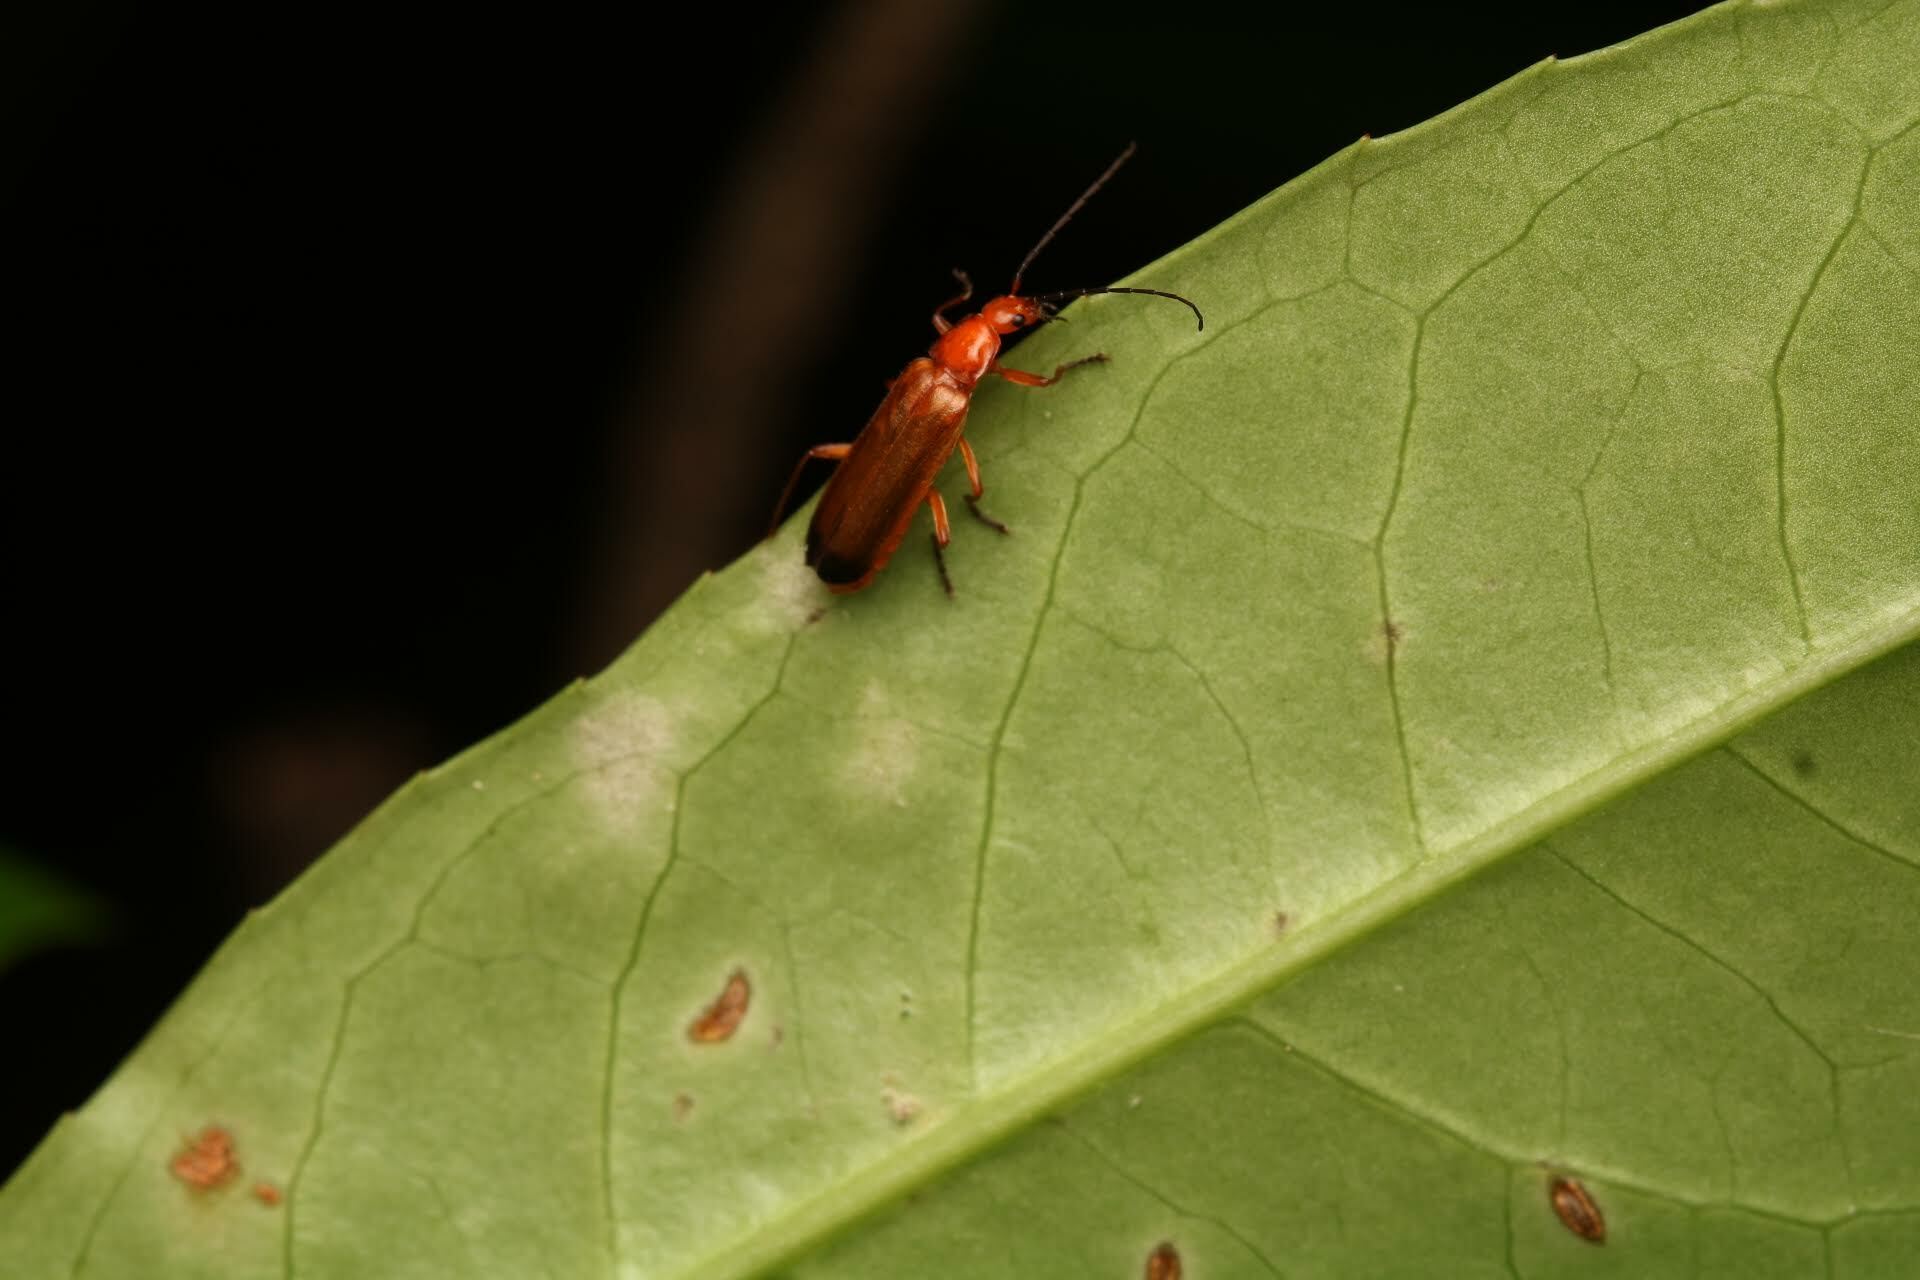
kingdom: Animalia
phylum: Arthropoda
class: Insecta
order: Coleoptera
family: Cantharidae
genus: Rhagonycha
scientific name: Rhagonycha fulva
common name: Common red soldier beetle
